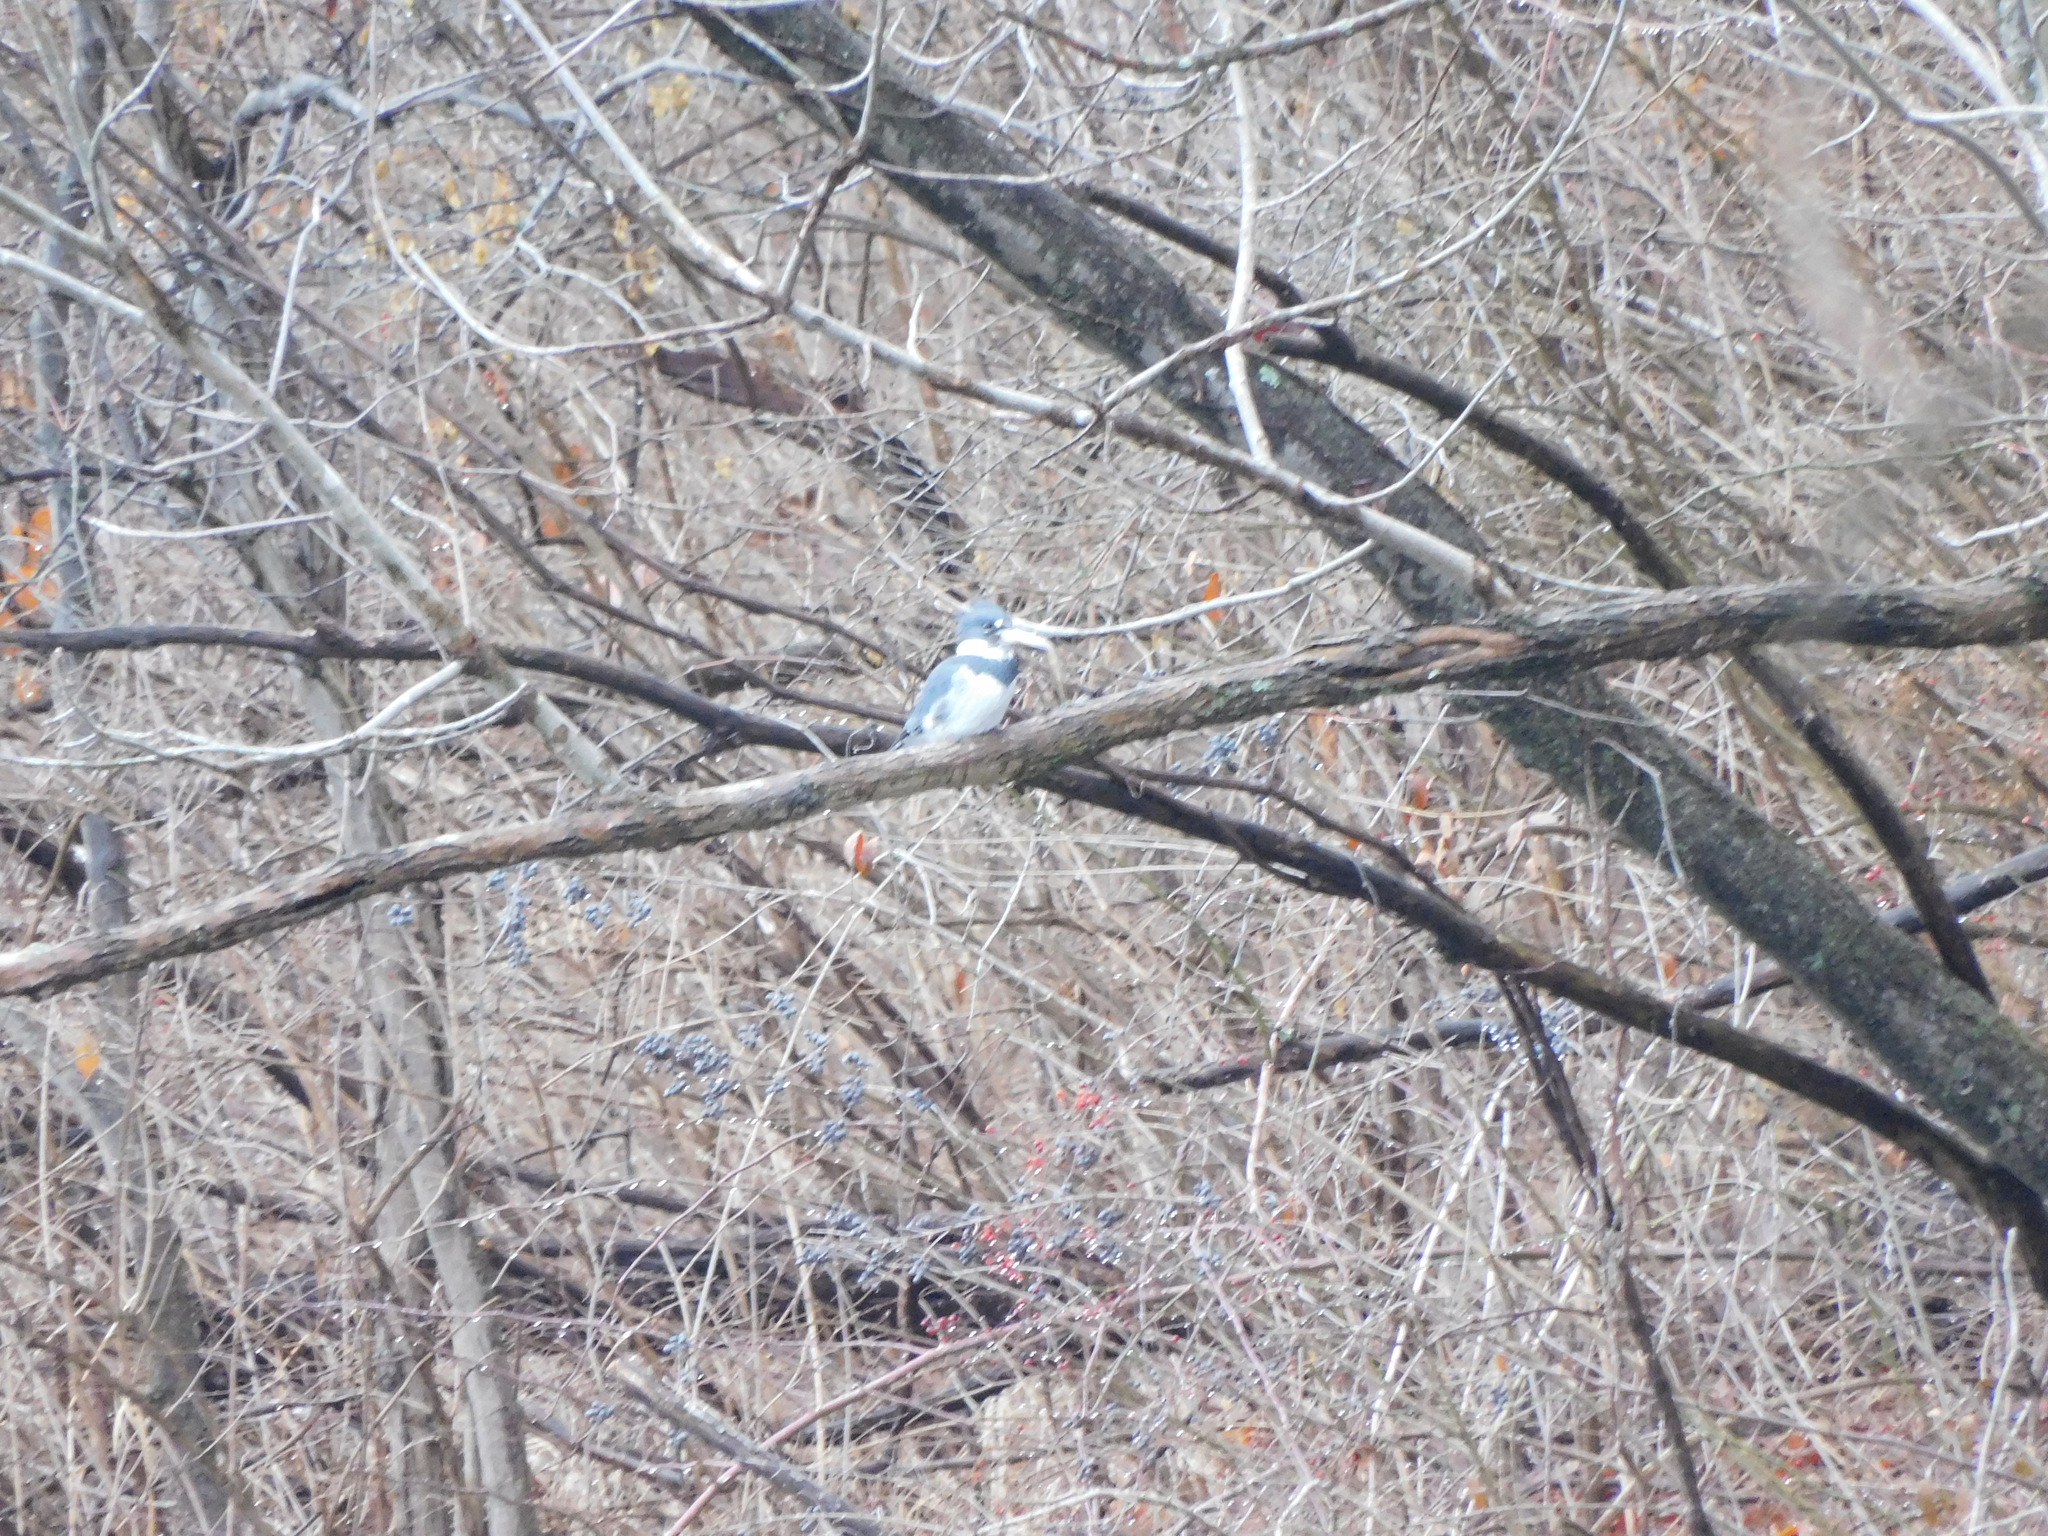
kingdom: Animalia
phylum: Chordata
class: Aves
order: Coraciiformes
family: Alcedinidae
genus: Megaceryle
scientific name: Megaceryle alcyon
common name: Belted kingfisher
